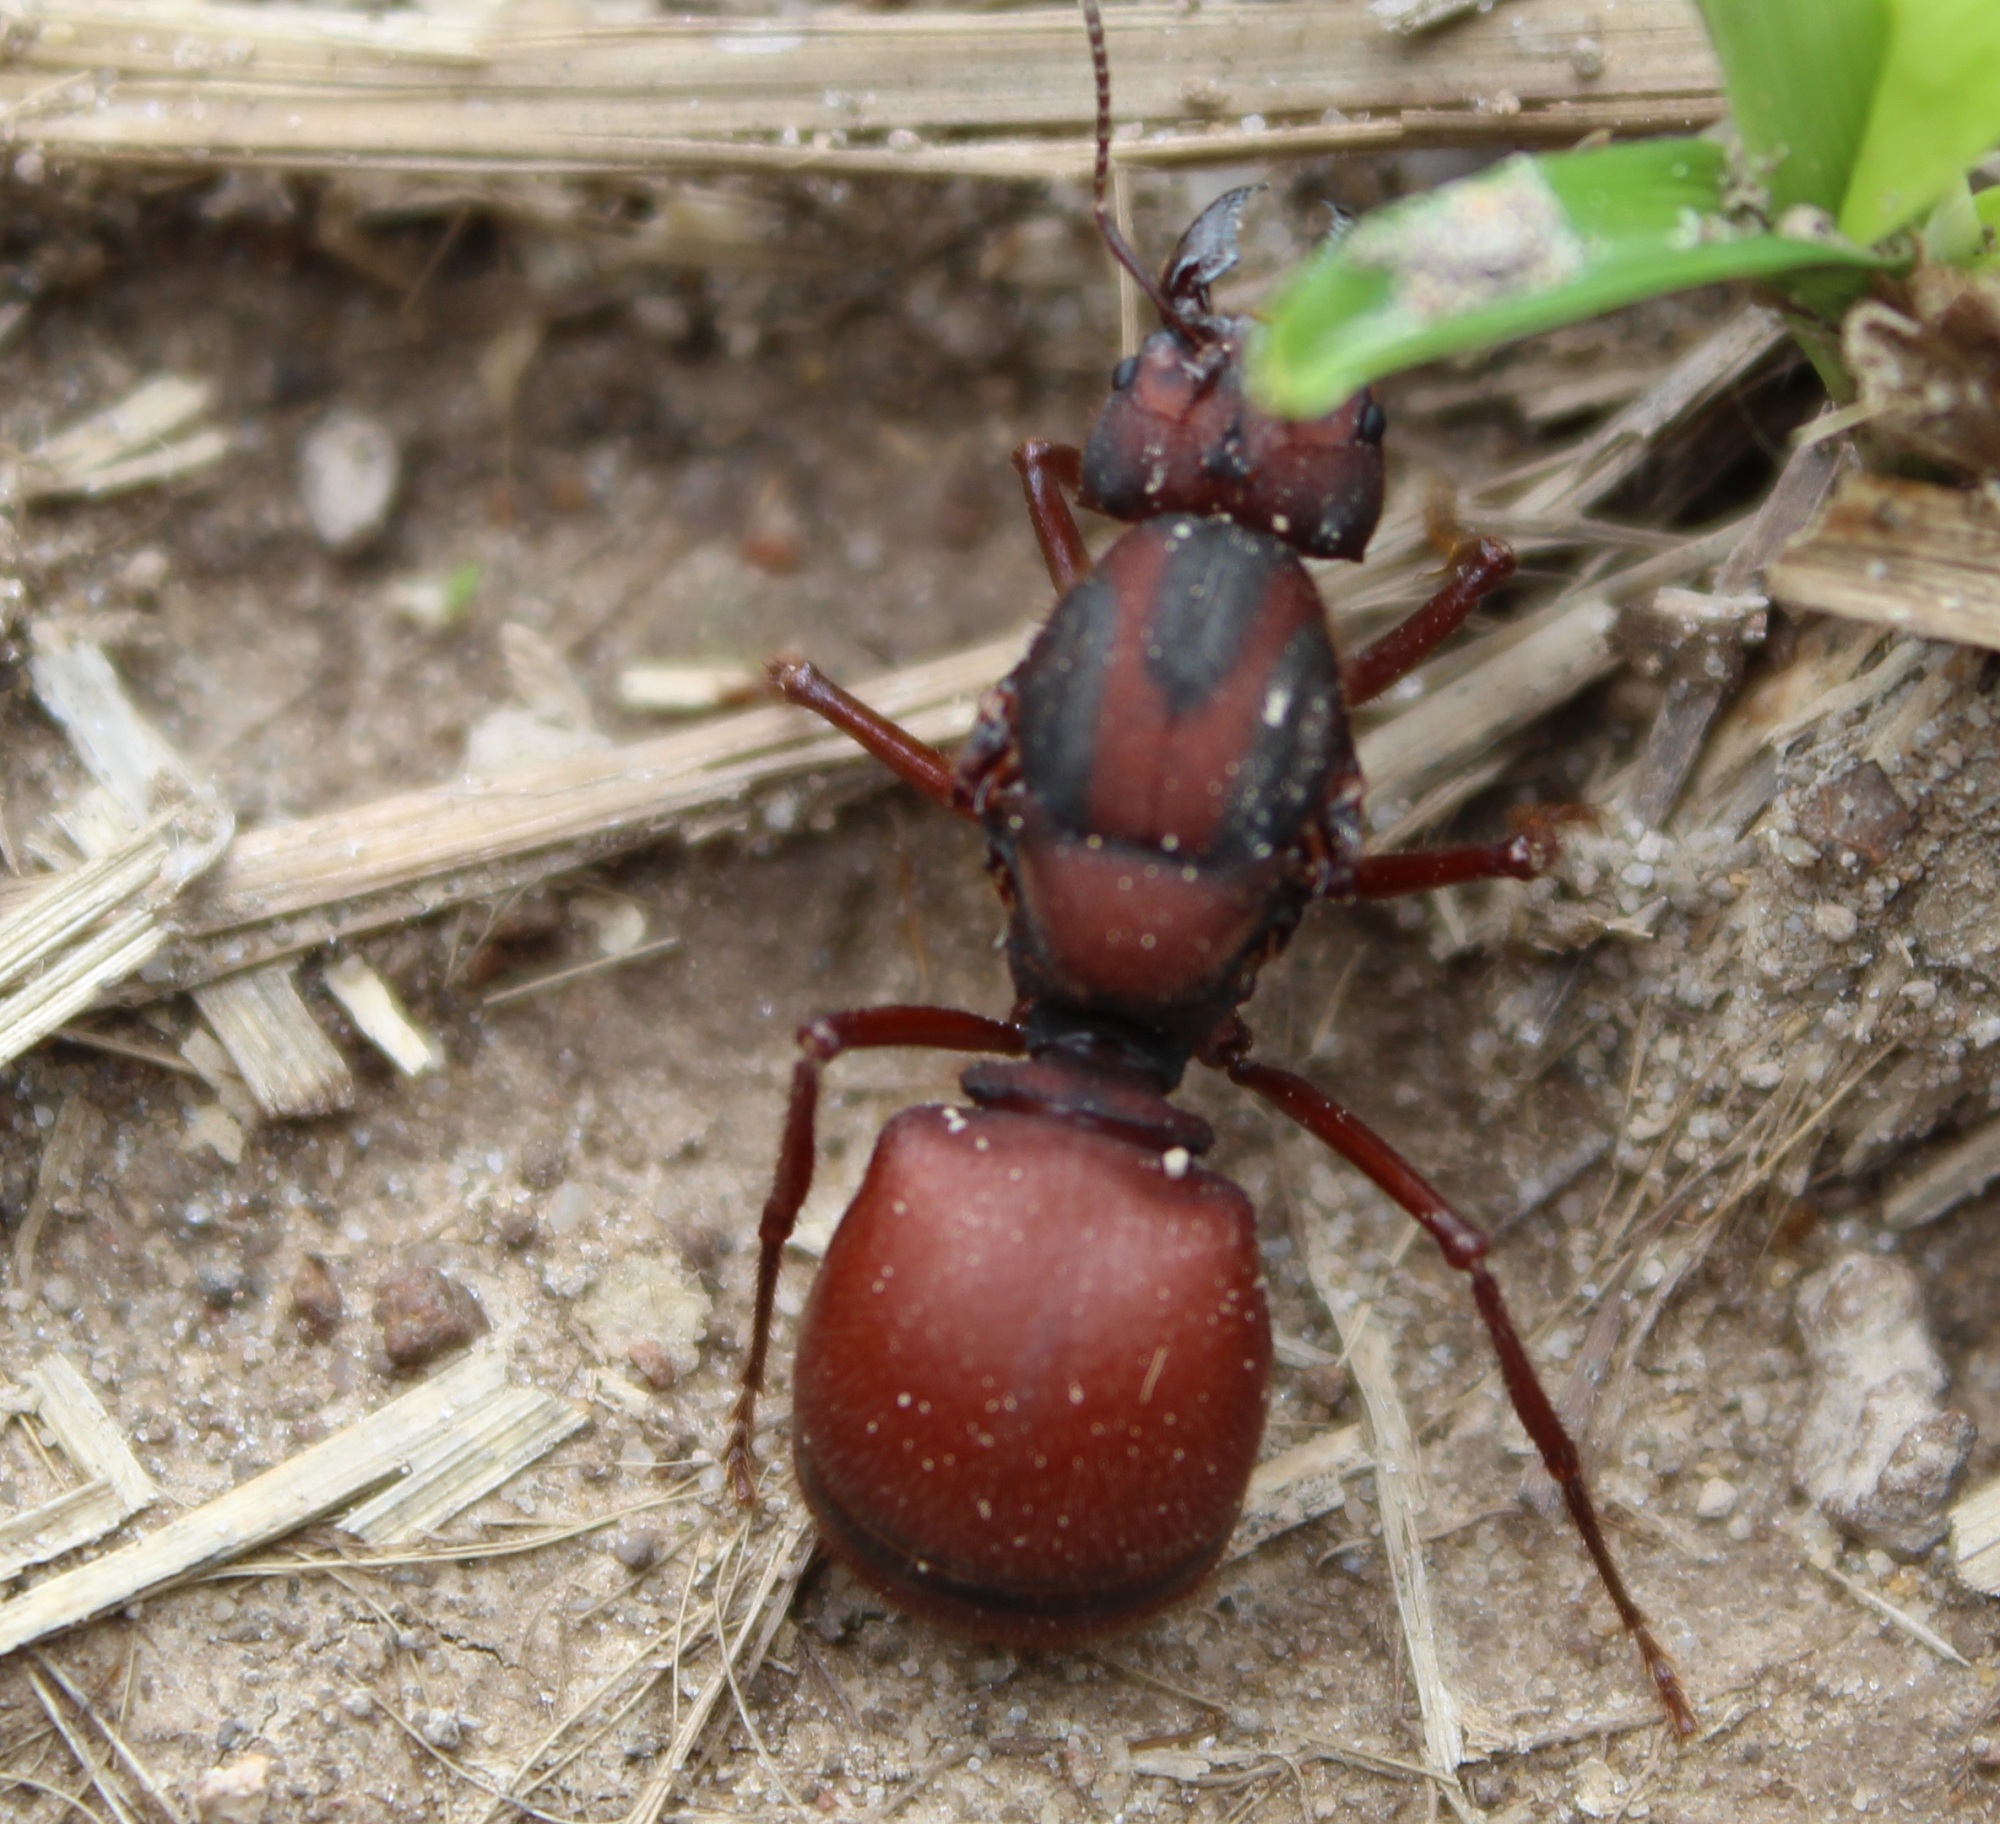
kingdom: Animalia
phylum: Arthropoda
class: Insecta
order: Hymenoptera
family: Formicidae
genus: Atta
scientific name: Atta laevigata
